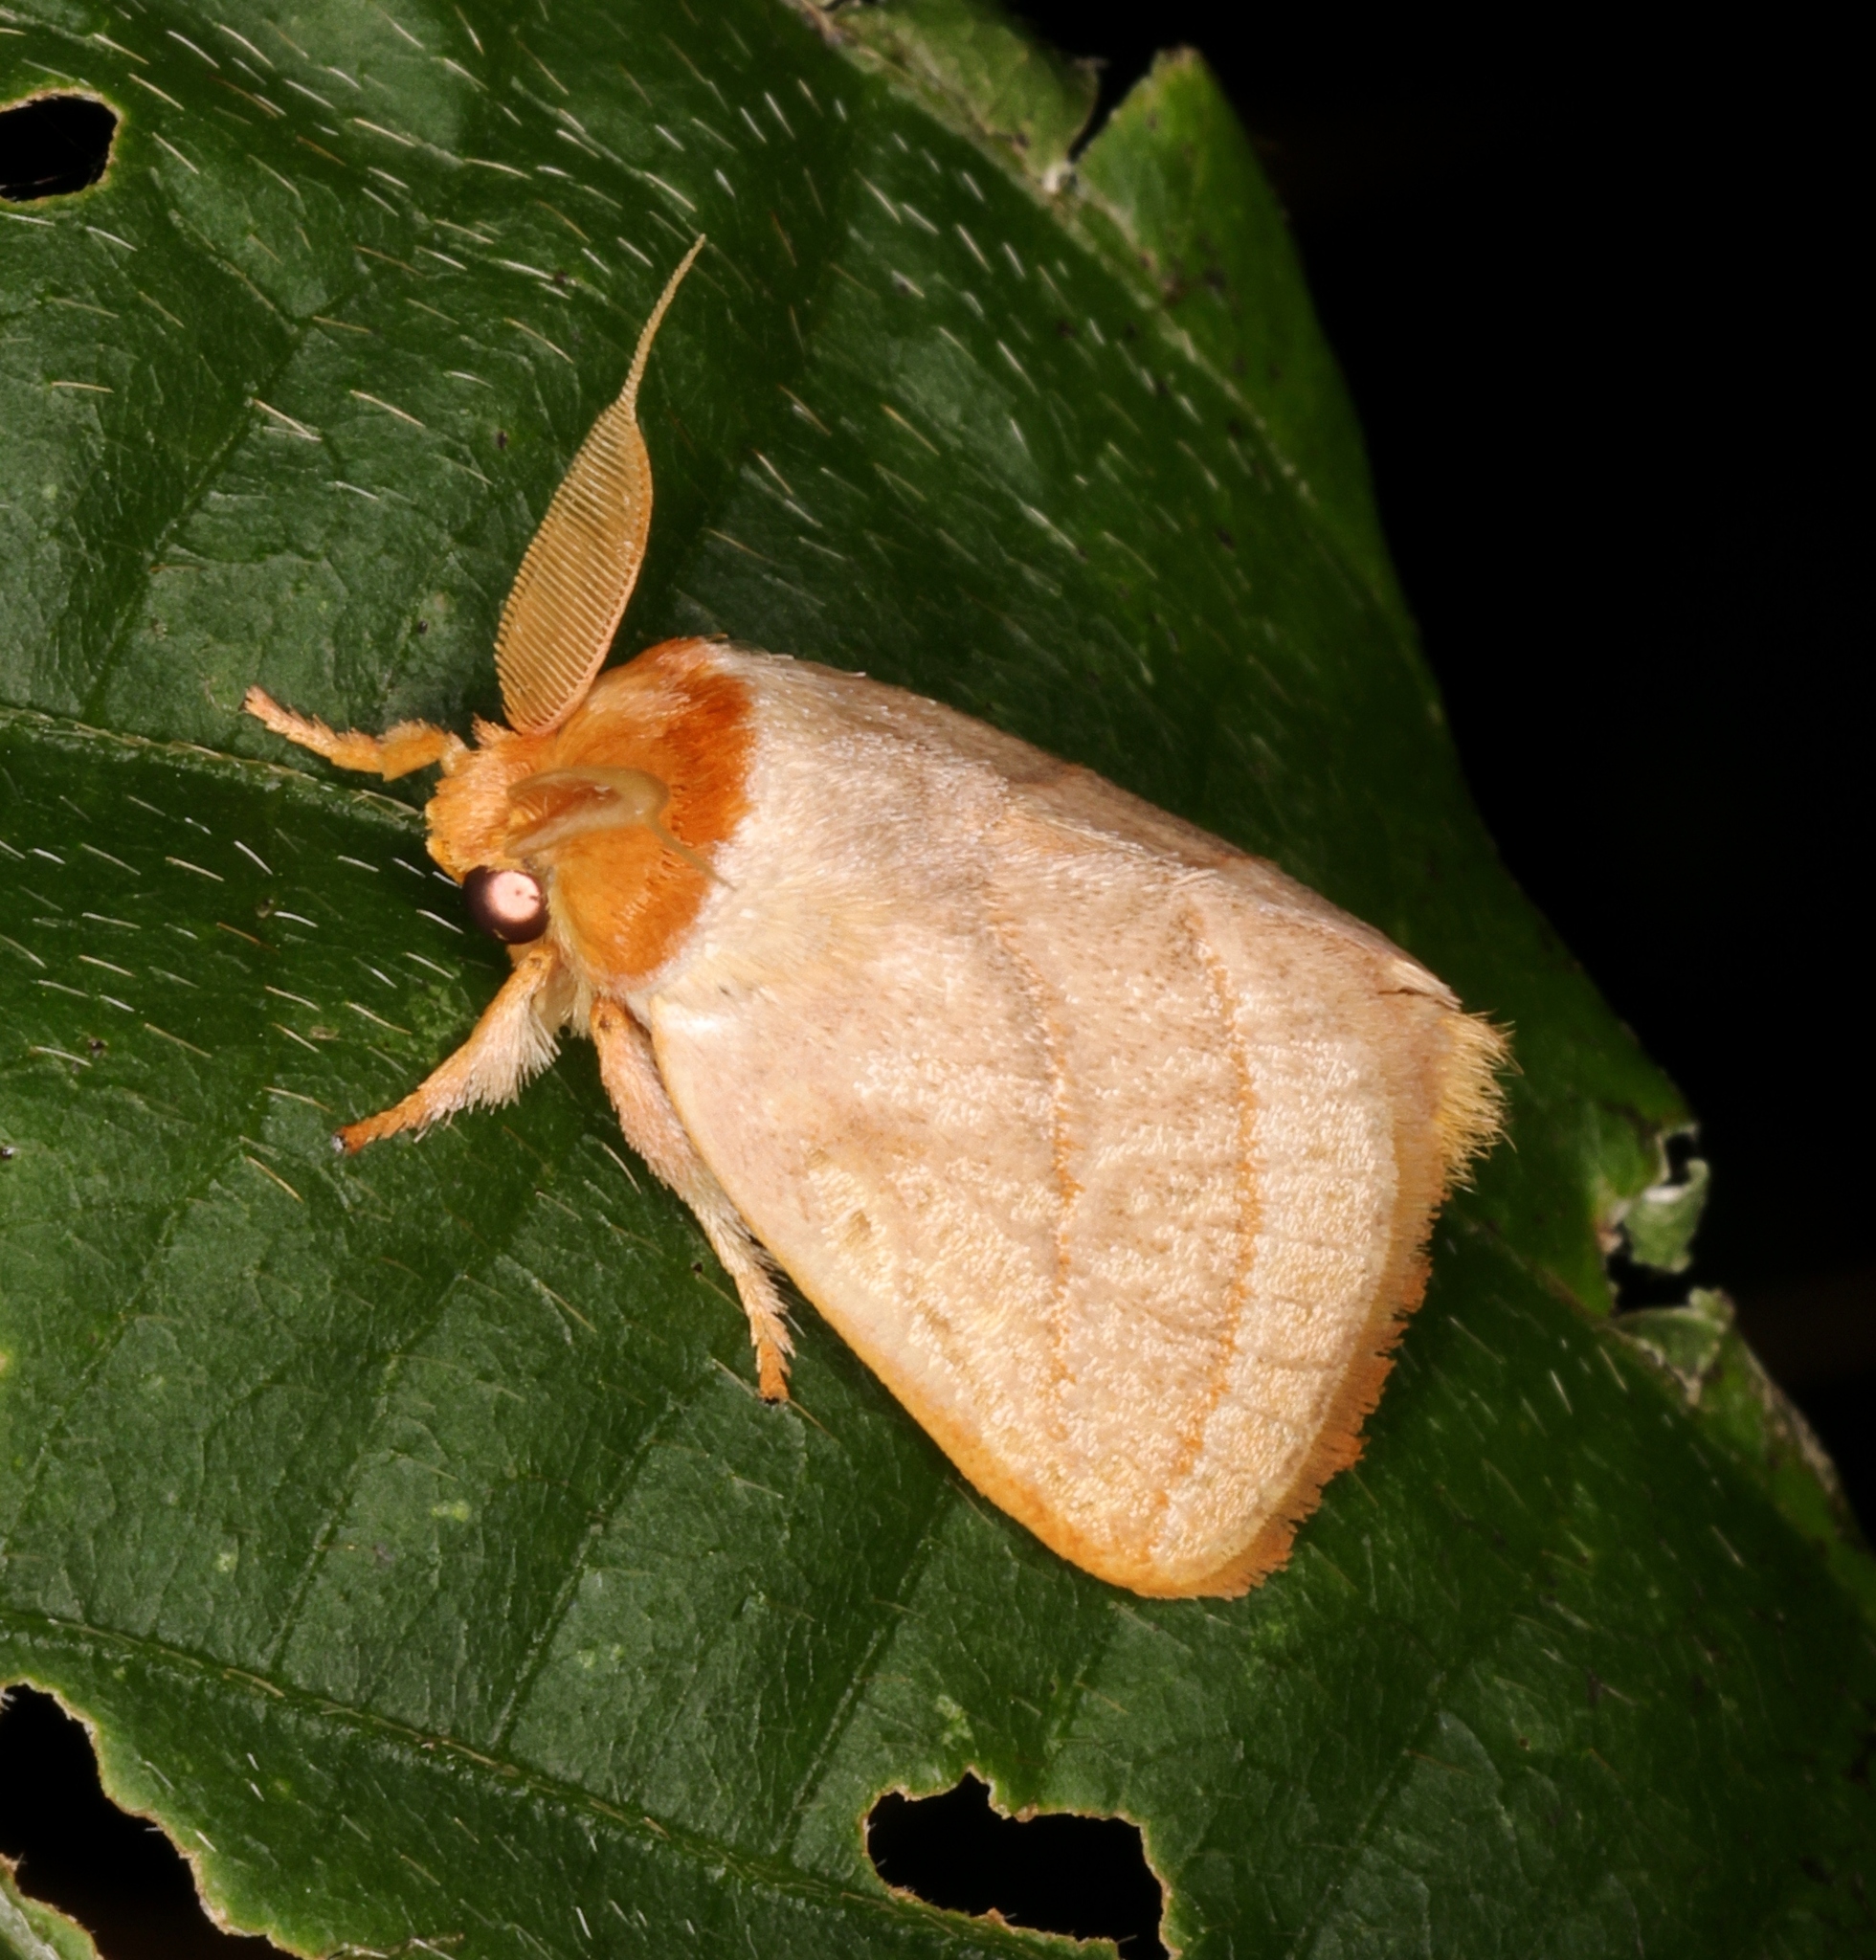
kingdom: Animalia
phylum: Arthropoda
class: Insecta
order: Lepidoptera
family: Limacodidae
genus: Cania
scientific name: Cania bilinea
